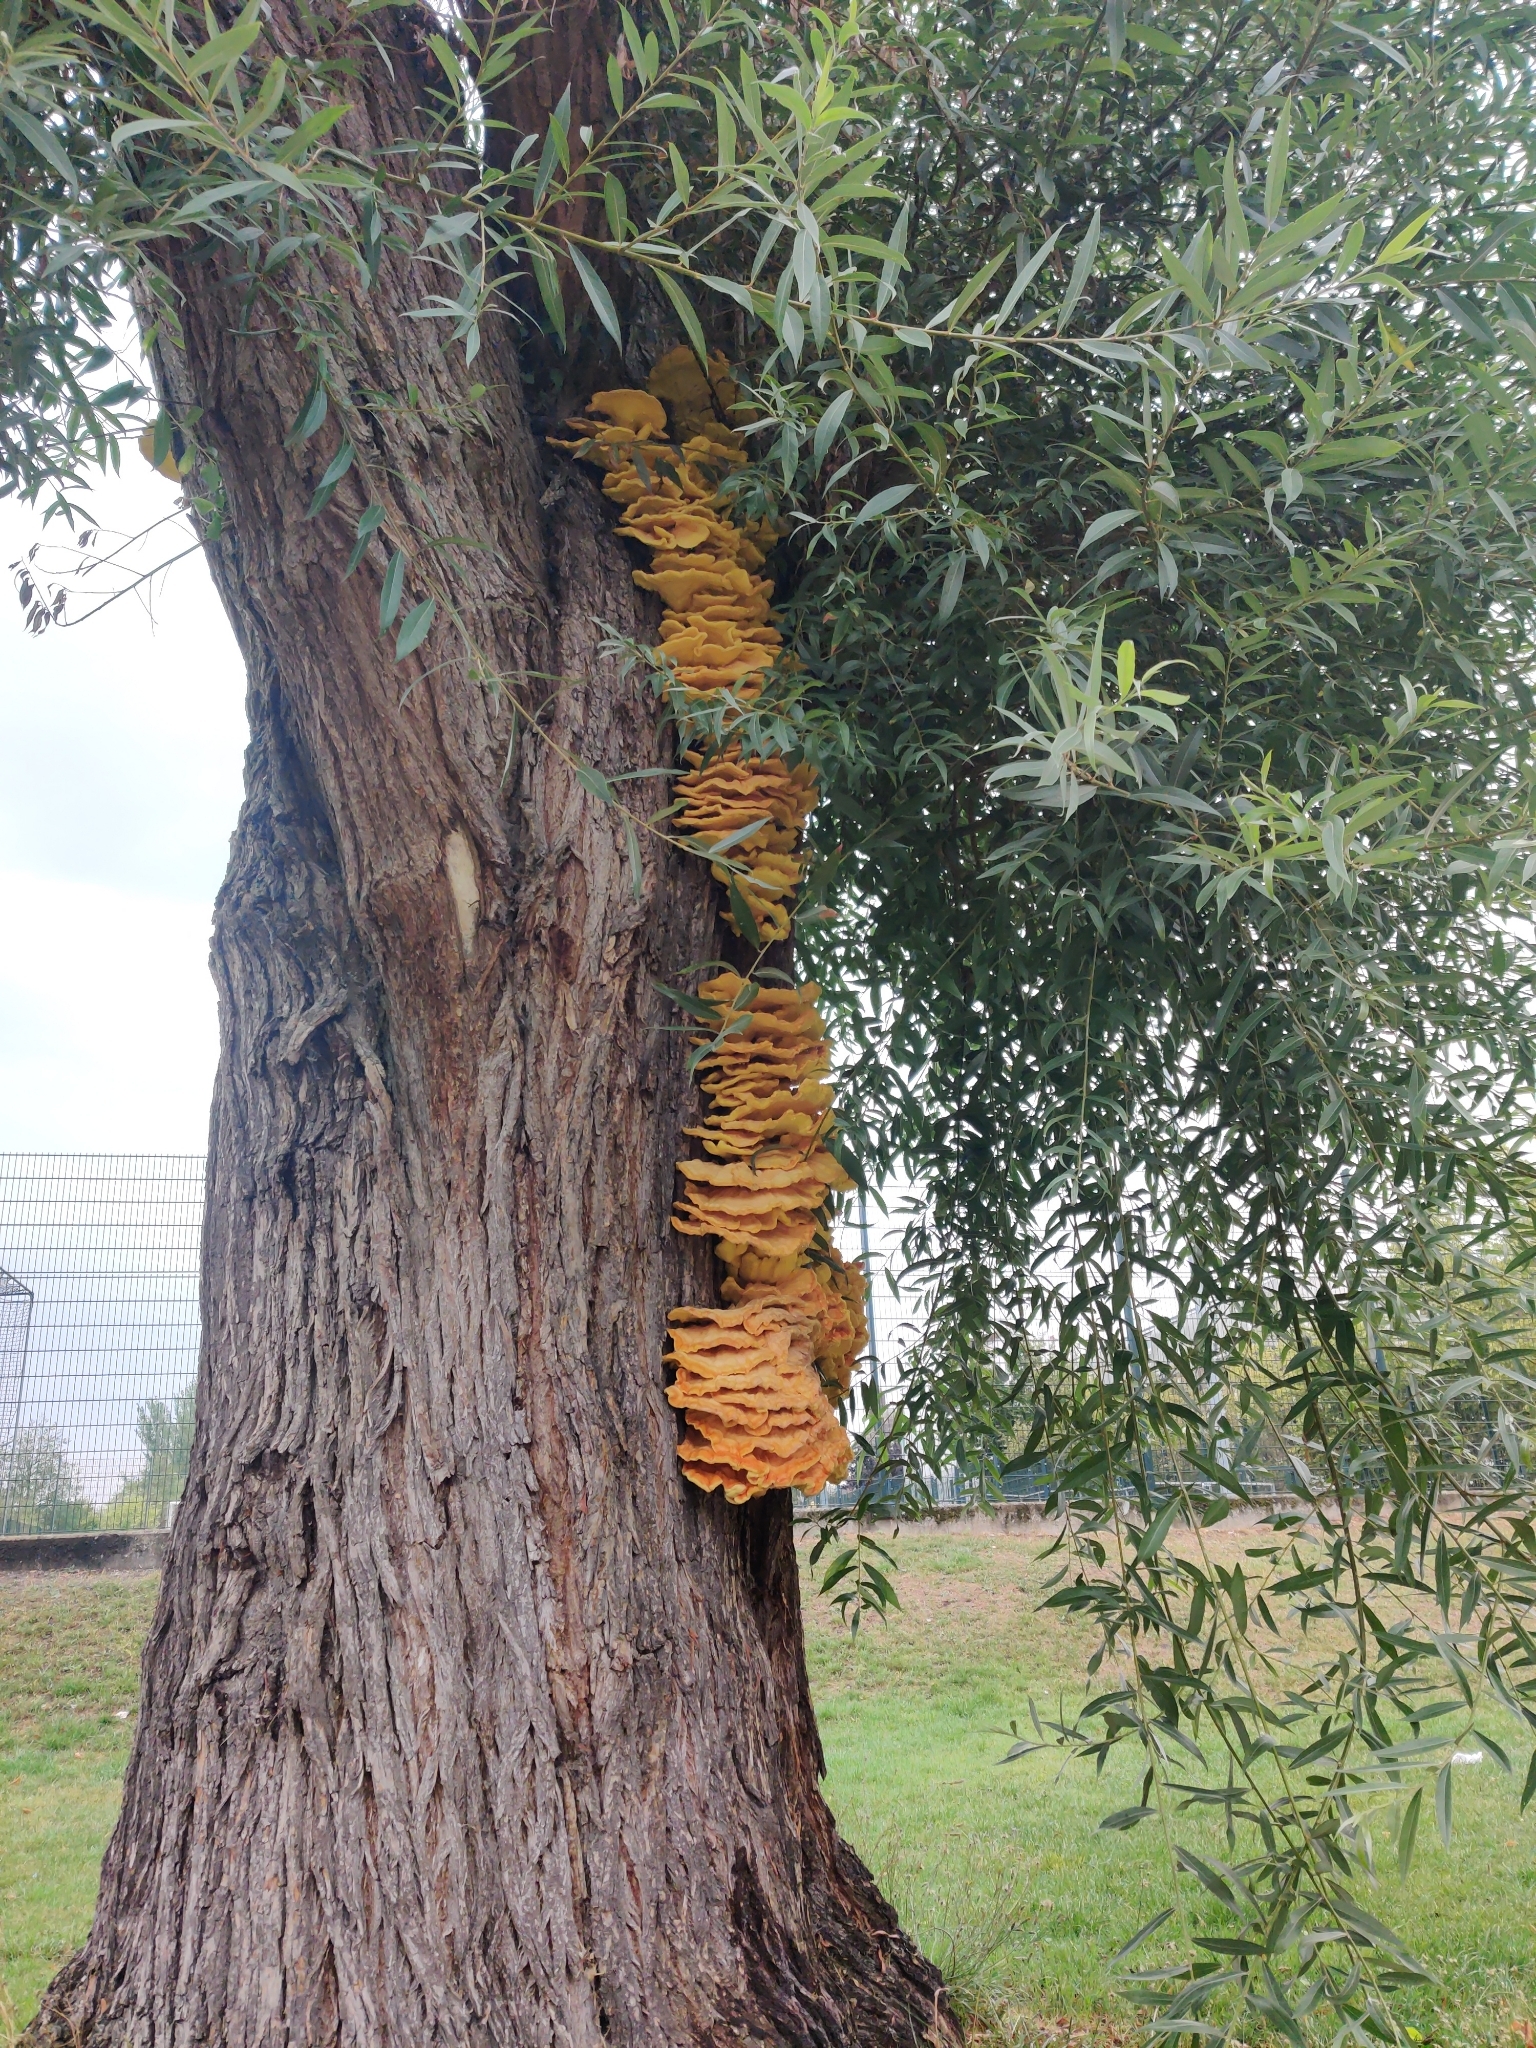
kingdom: Fungi
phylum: Basidiomycota
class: Agaricomycetes
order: Polyporales
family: Laetiporaceae
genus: Laetiporus
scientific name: Laetiporus sulphureus
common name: Chicken of the woods
